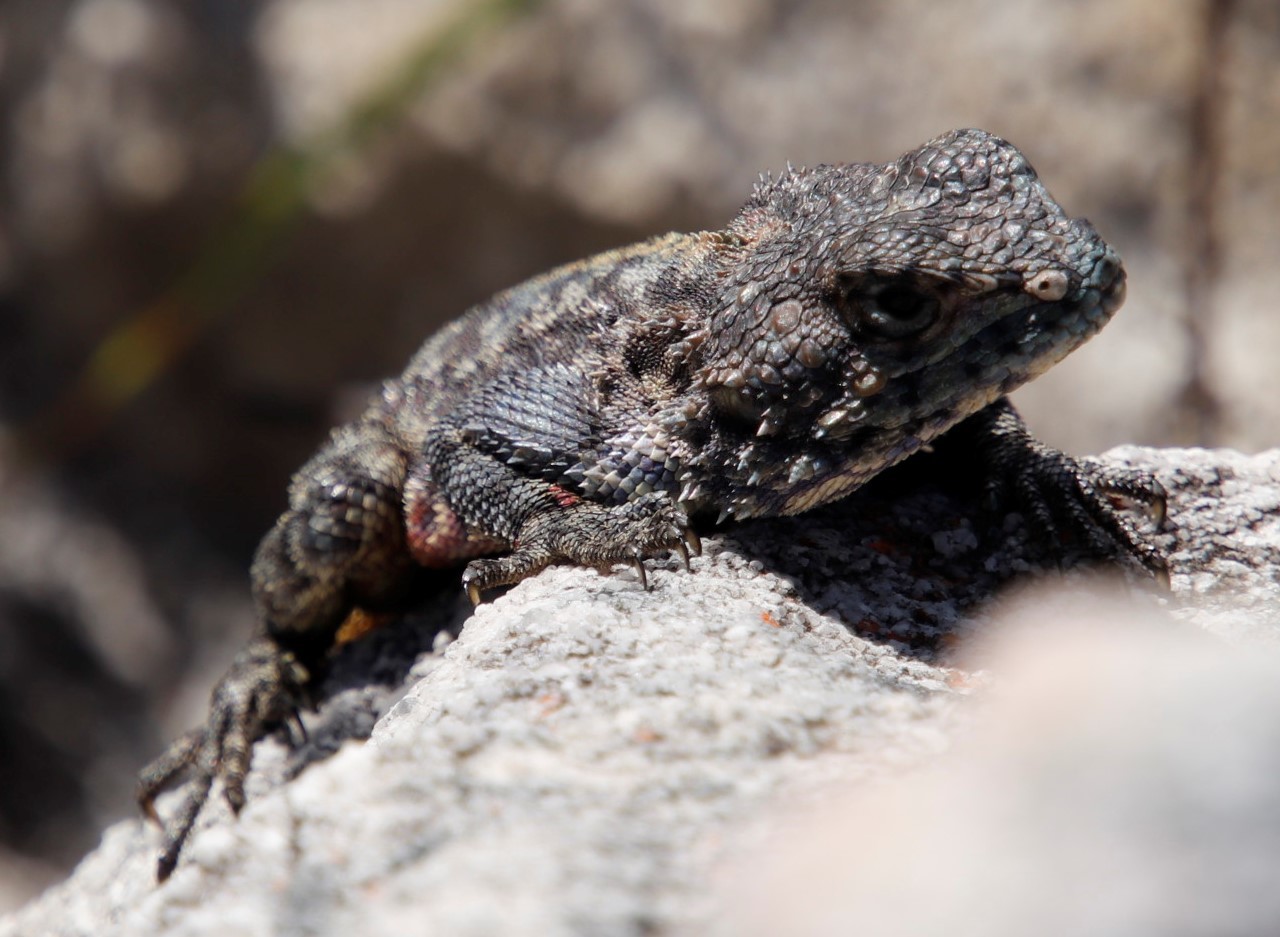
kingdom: Animalia
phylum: Chordata
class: Squamata
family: Agamidae
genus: Agama
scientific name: Agama atra
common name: Southern african rock agama
